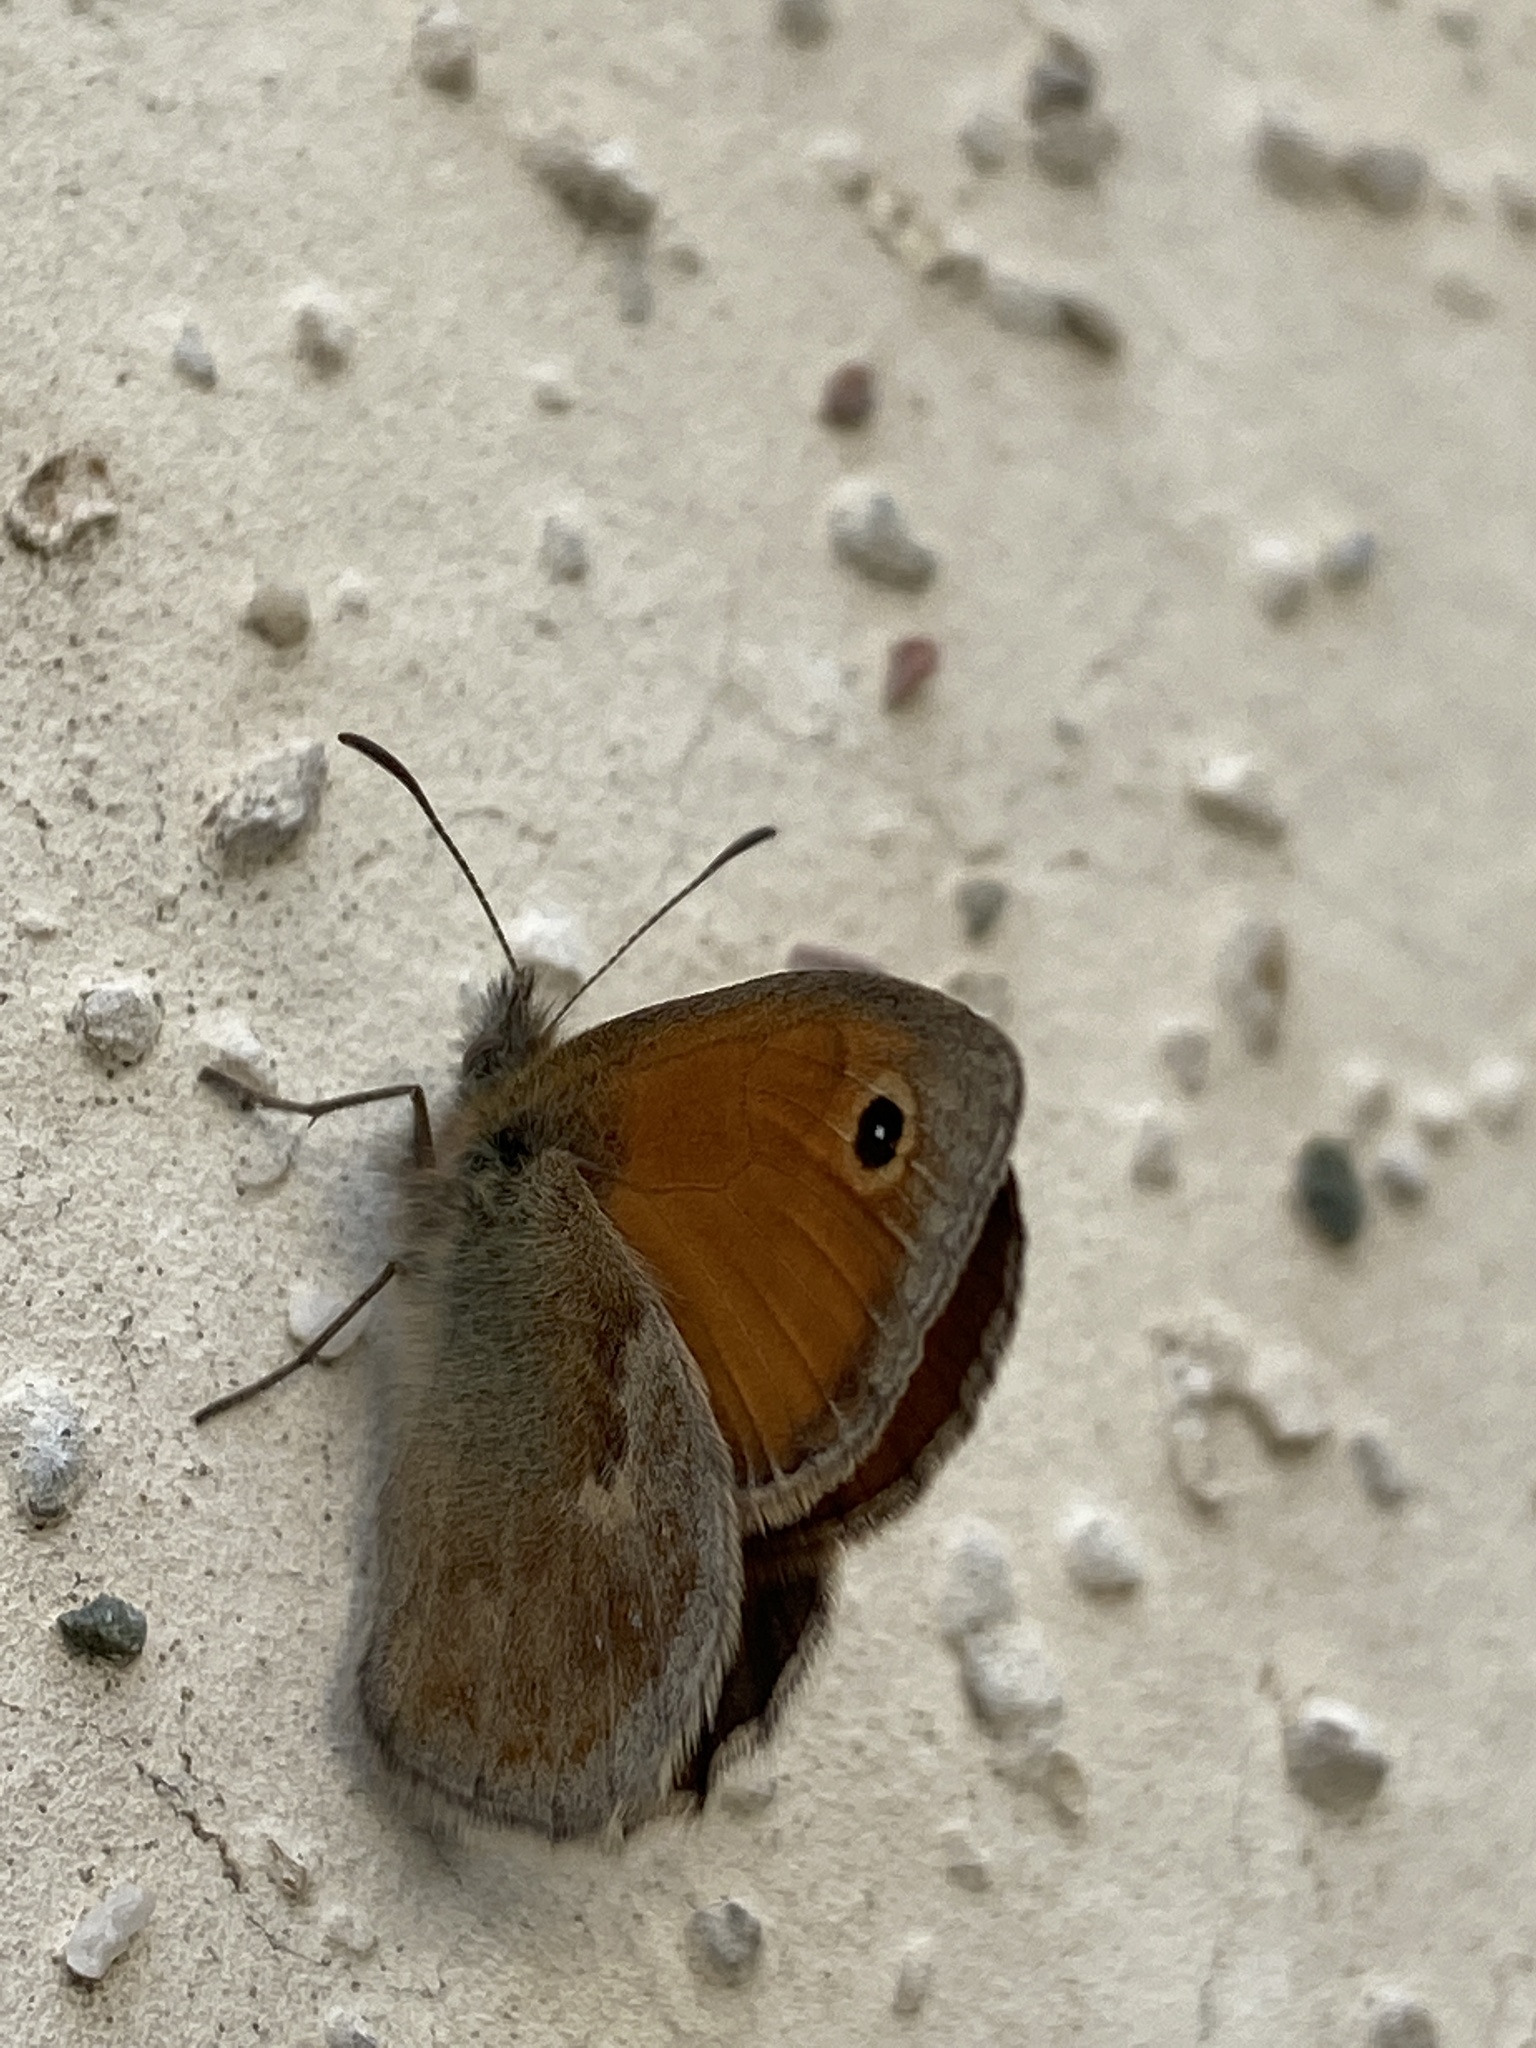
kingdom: Animalia
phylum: Arthropoda
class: Insecta
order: Lepidoptera
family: Nymphalidae
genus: Coenonympha
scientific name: Coenonympha pamphilus
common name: Small heath
